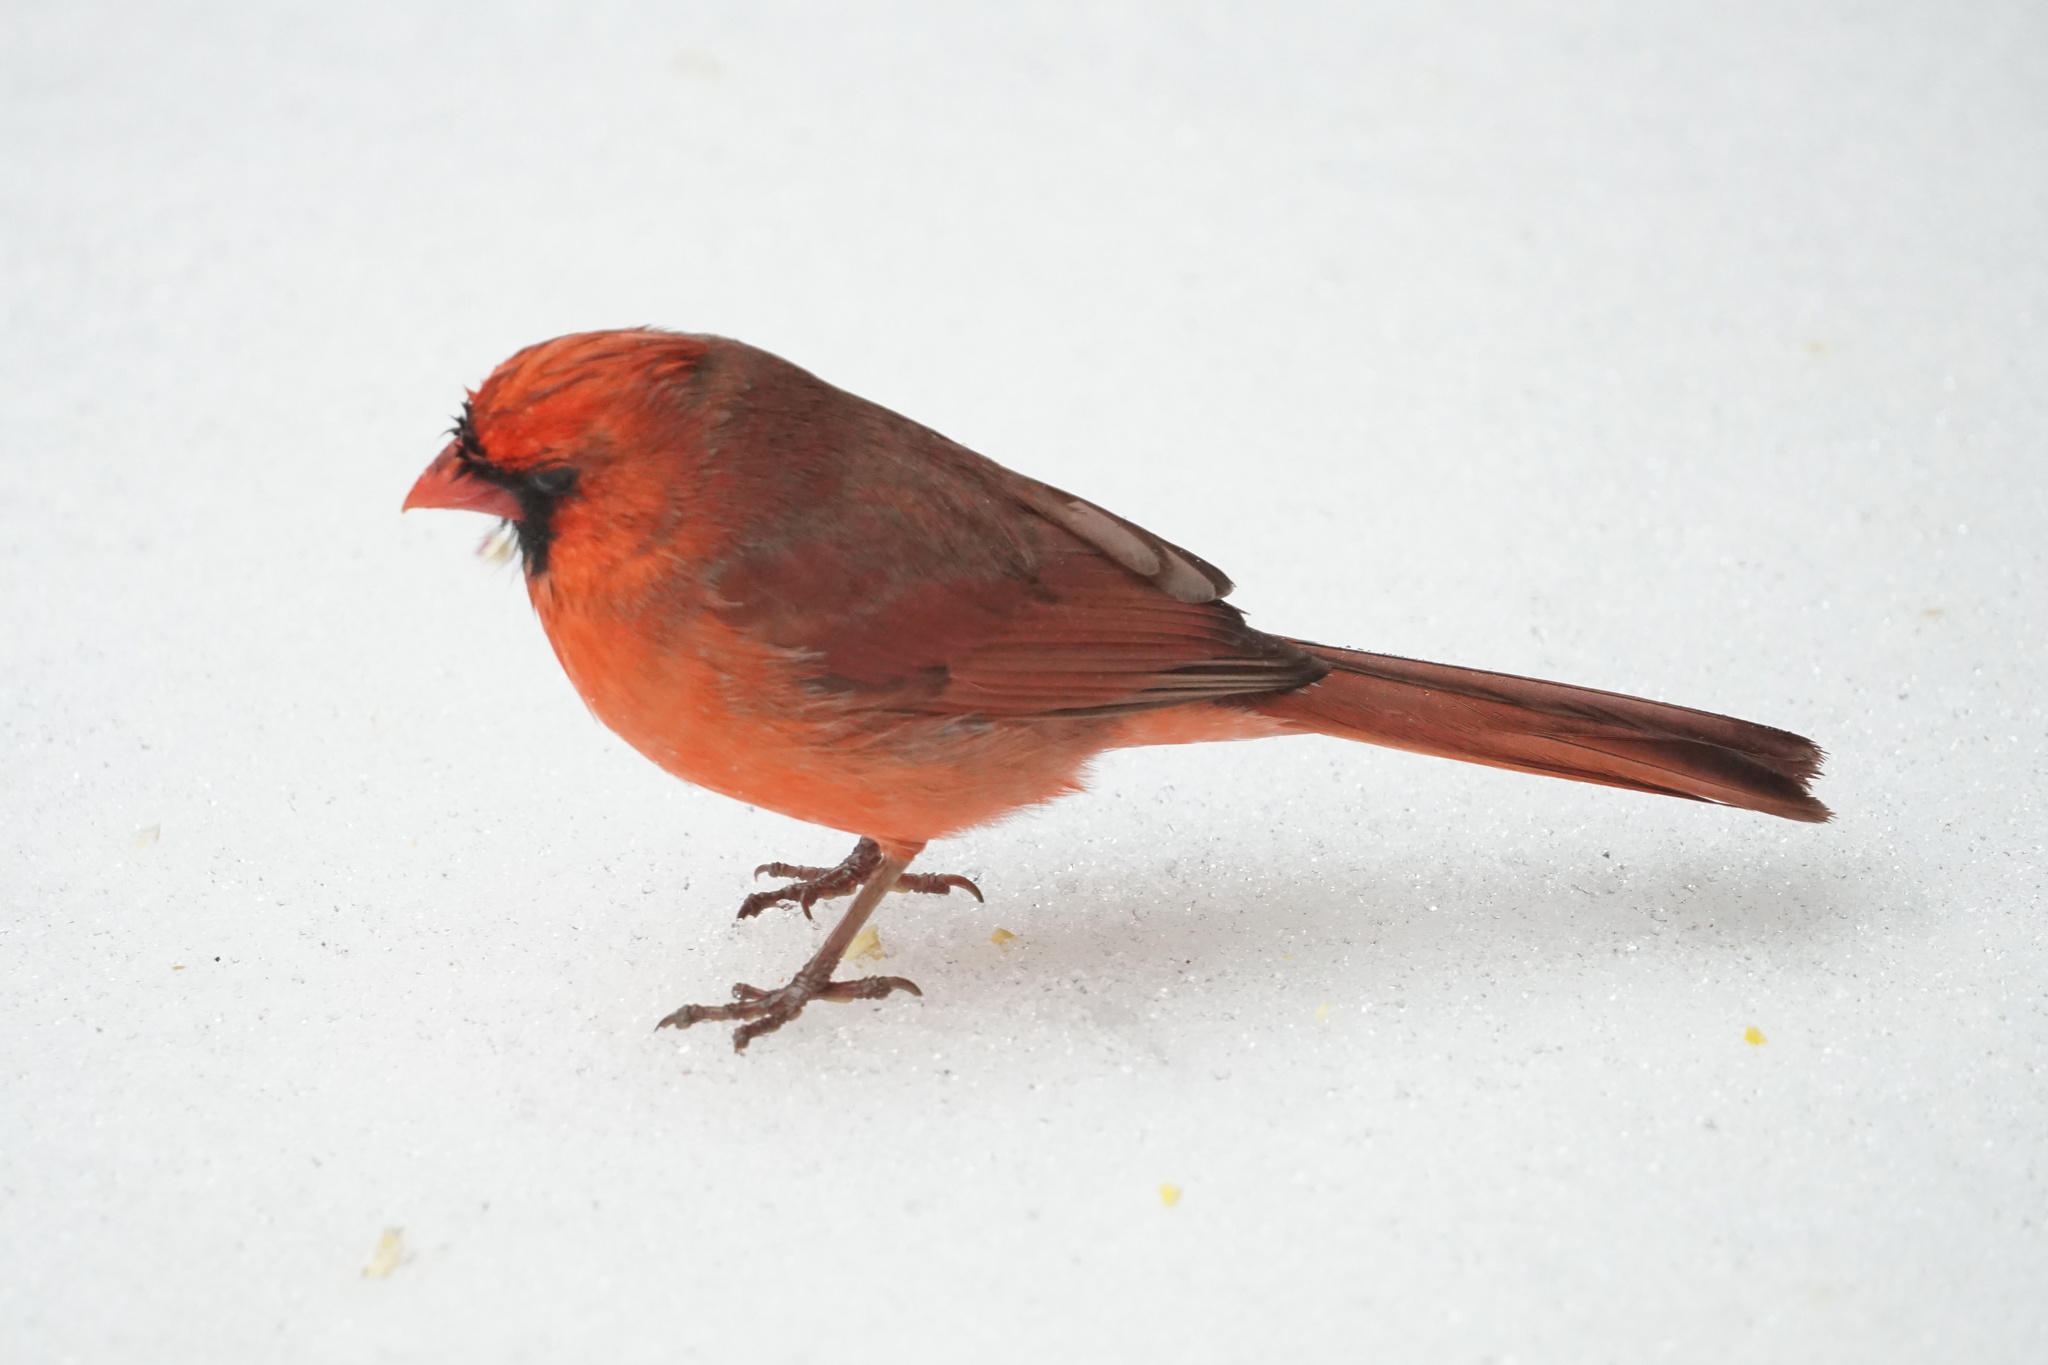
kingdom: Animalia
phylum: Chordata
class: Aves
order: Passeriformes
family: Cardinalidae
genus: Cardinalis
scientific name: Cardinalis cardinalis
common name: Northern cardinal
